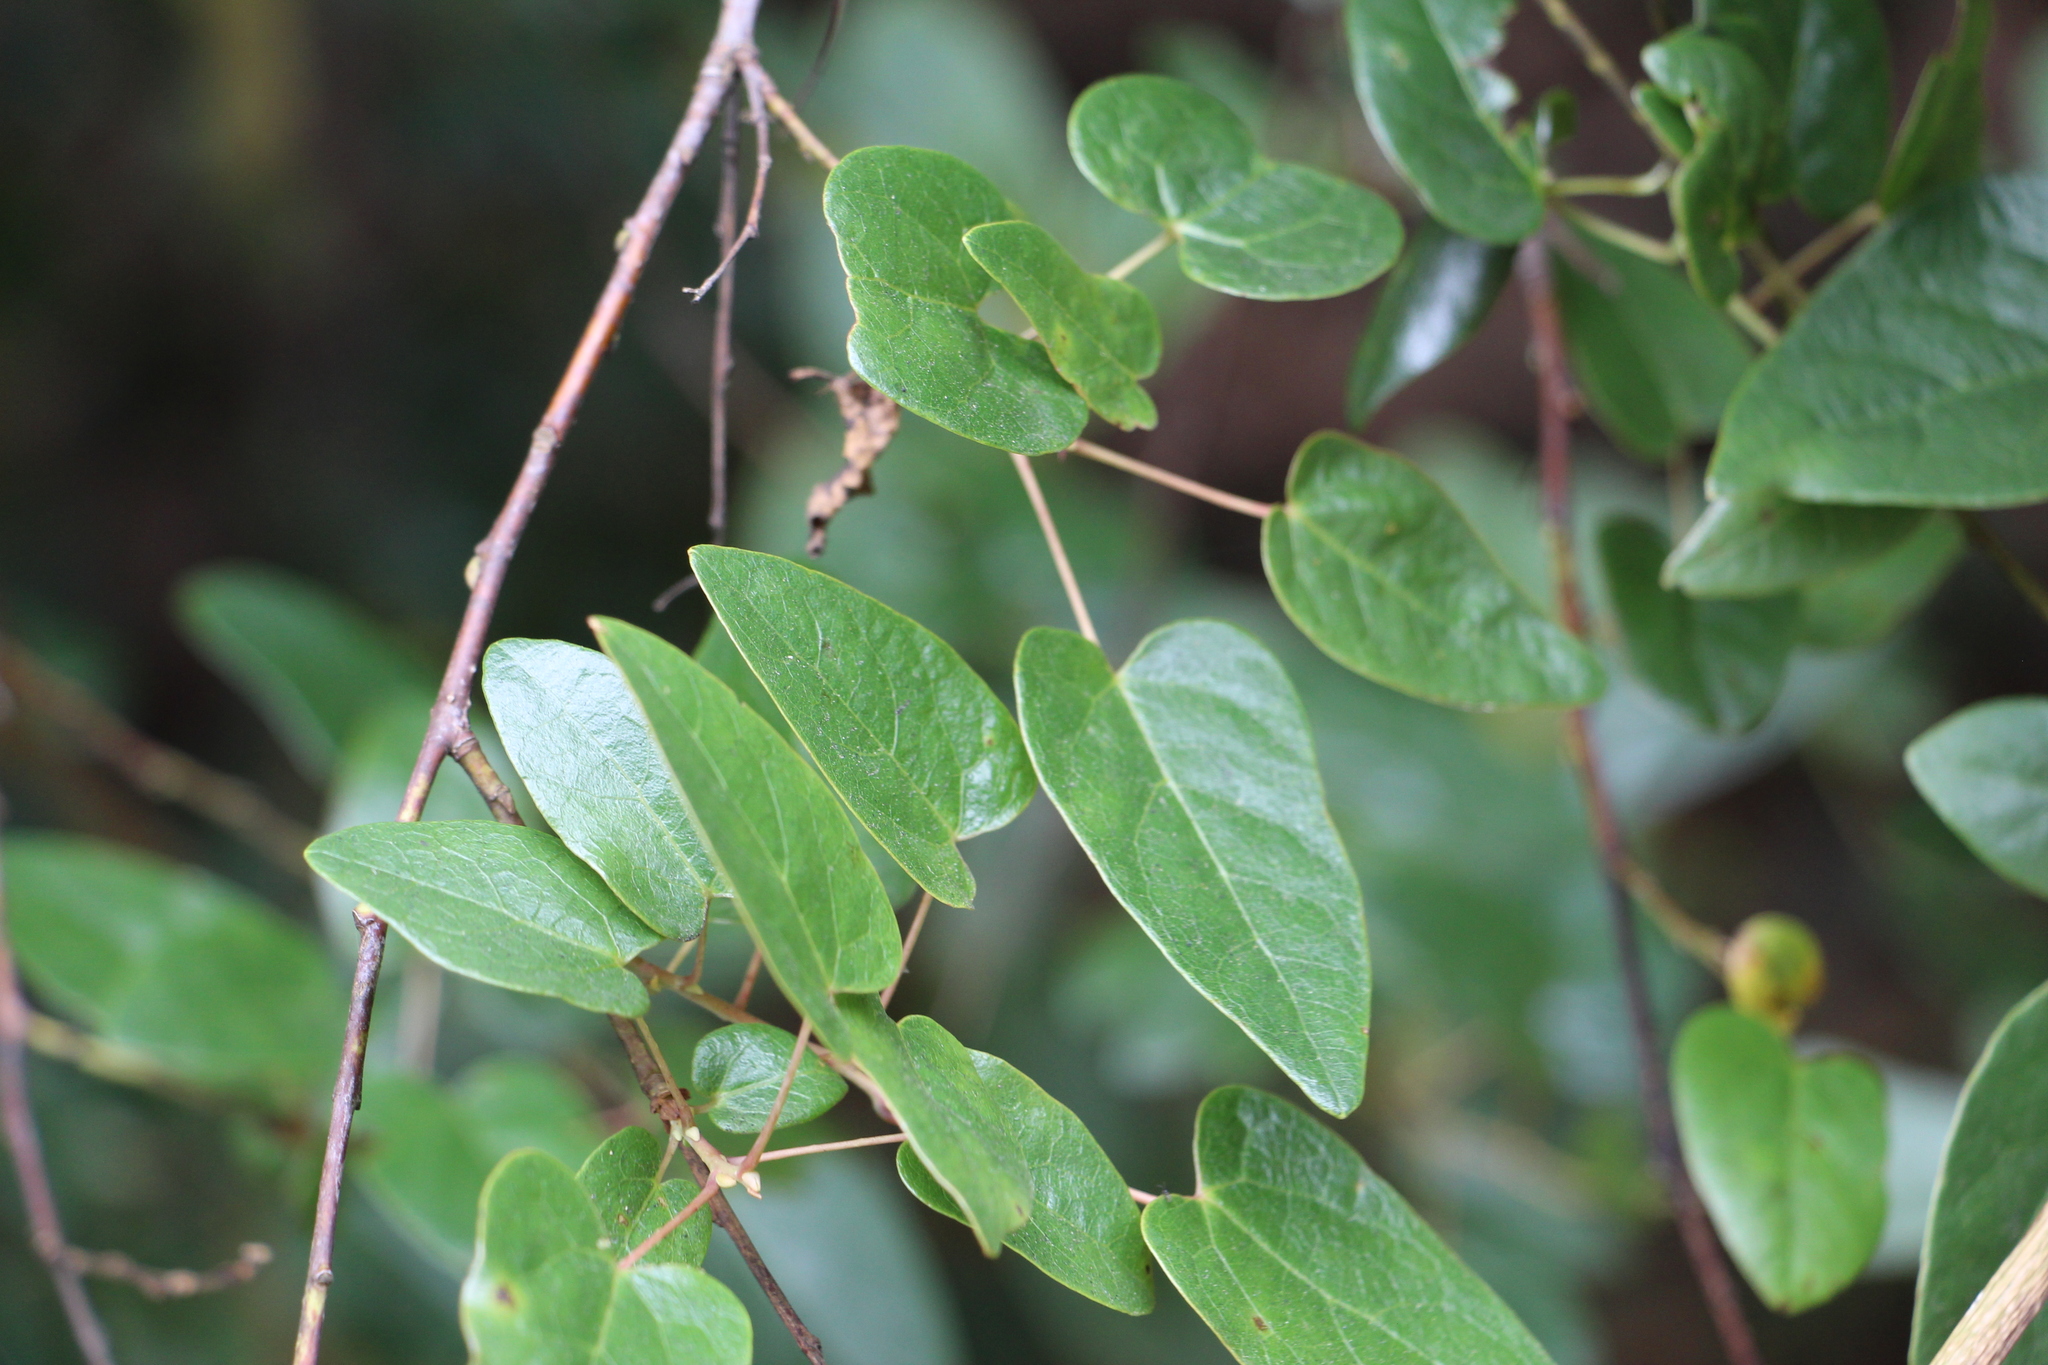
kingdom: Plantae
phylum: Tracheophyta
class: Magnoliopsida
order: Oxalidales
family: Elaeocarpaceae
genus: Vallea
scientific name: Vallea stipularis
